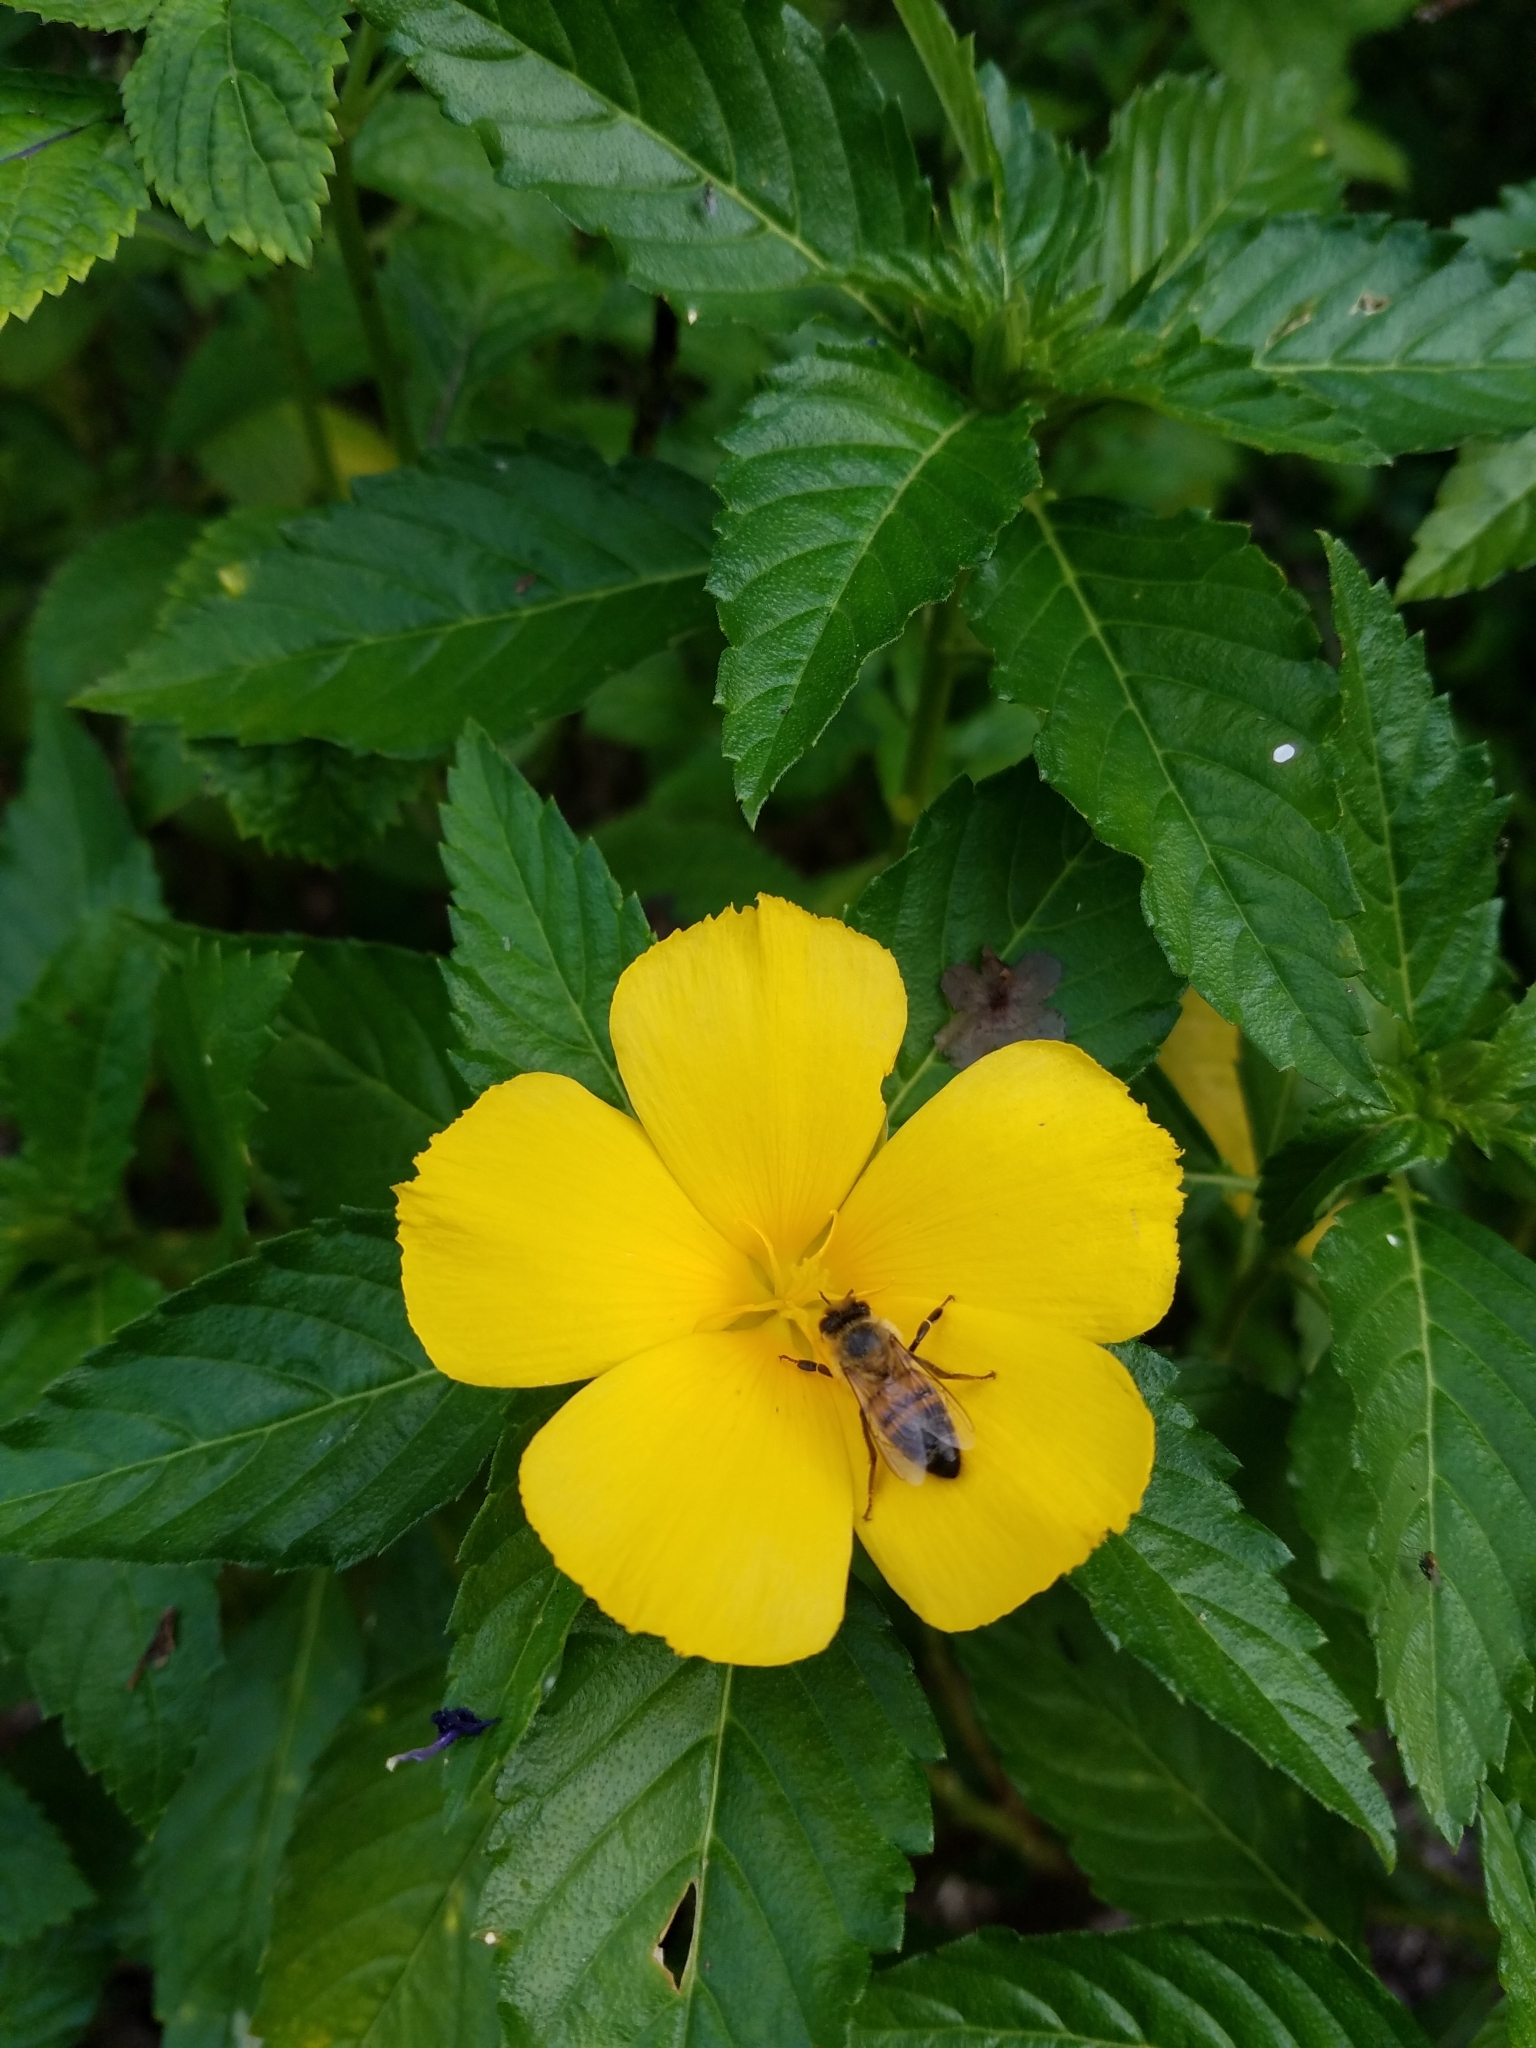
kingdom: Animalia
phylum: Arthropoda
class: Insecta
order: Hymenoptera
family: Apidae
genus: Apis
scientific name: Apis mellifera
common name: Honey bee
